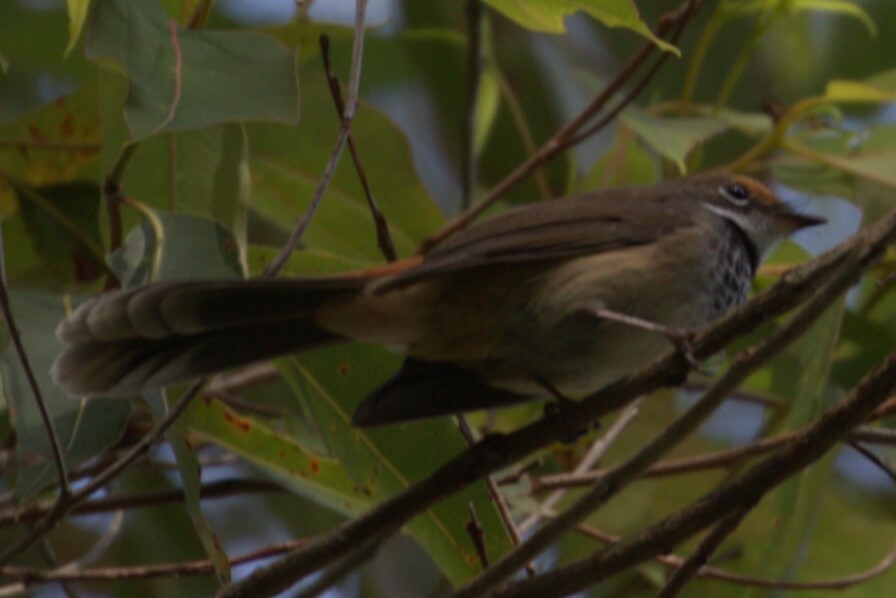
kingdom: Animalia
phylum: Chordata
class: Aves
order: Passeriformes
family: Rhipiduridae
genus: Rhipidura
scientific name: Rhipidura rufifrons
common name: Rufous fantail
